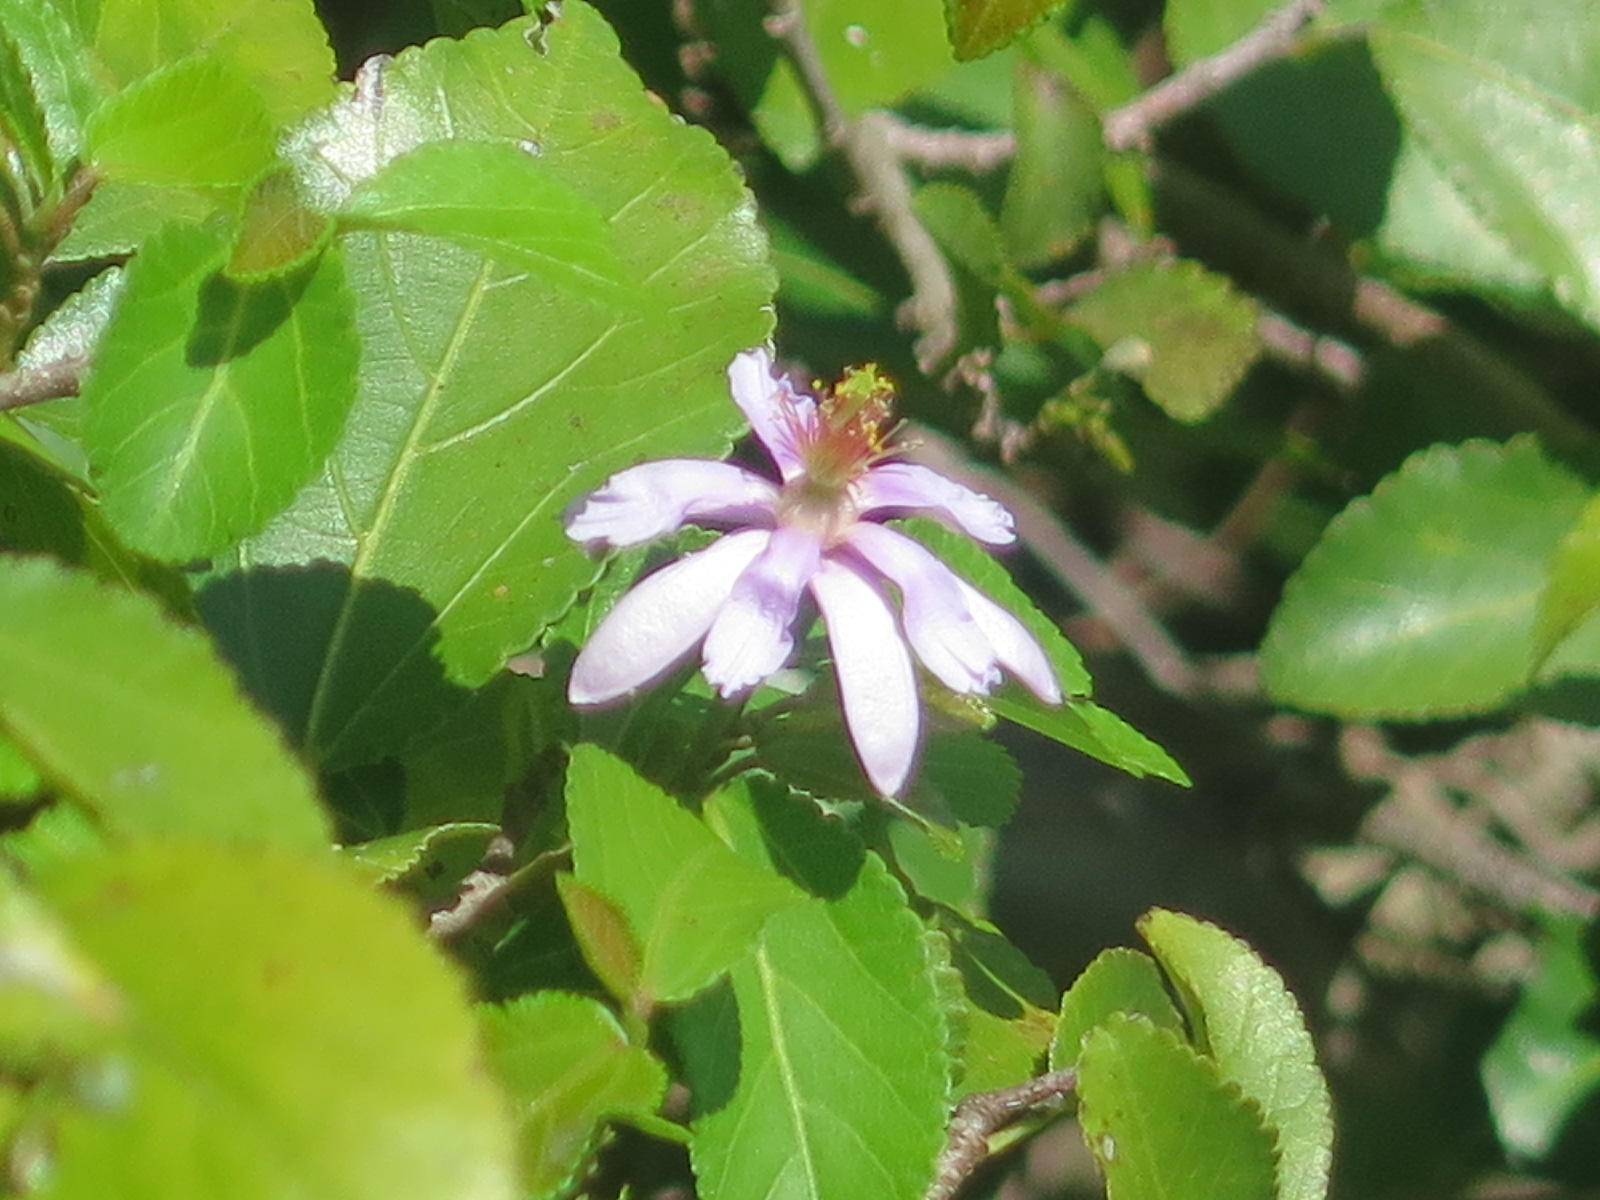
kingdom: Plantae
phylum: Tracheophyta
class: Magnoliopsida
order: Malvales
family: Malvaceae
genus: Grewia
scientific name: Grewia occidentalis
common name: Crossberry
